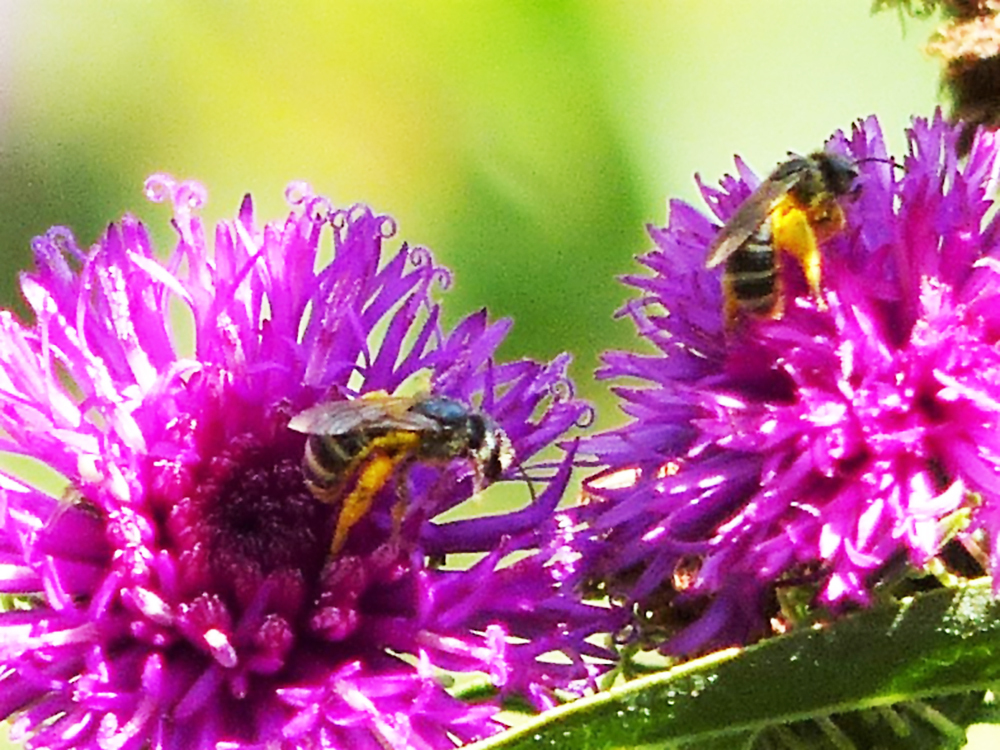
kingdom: Animalia
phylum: Arthropoda
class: Insecta
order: Hymenoptera
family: Halictidae
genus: Halictus
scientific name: Halictus ligatus
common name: Ligated furrow bee
